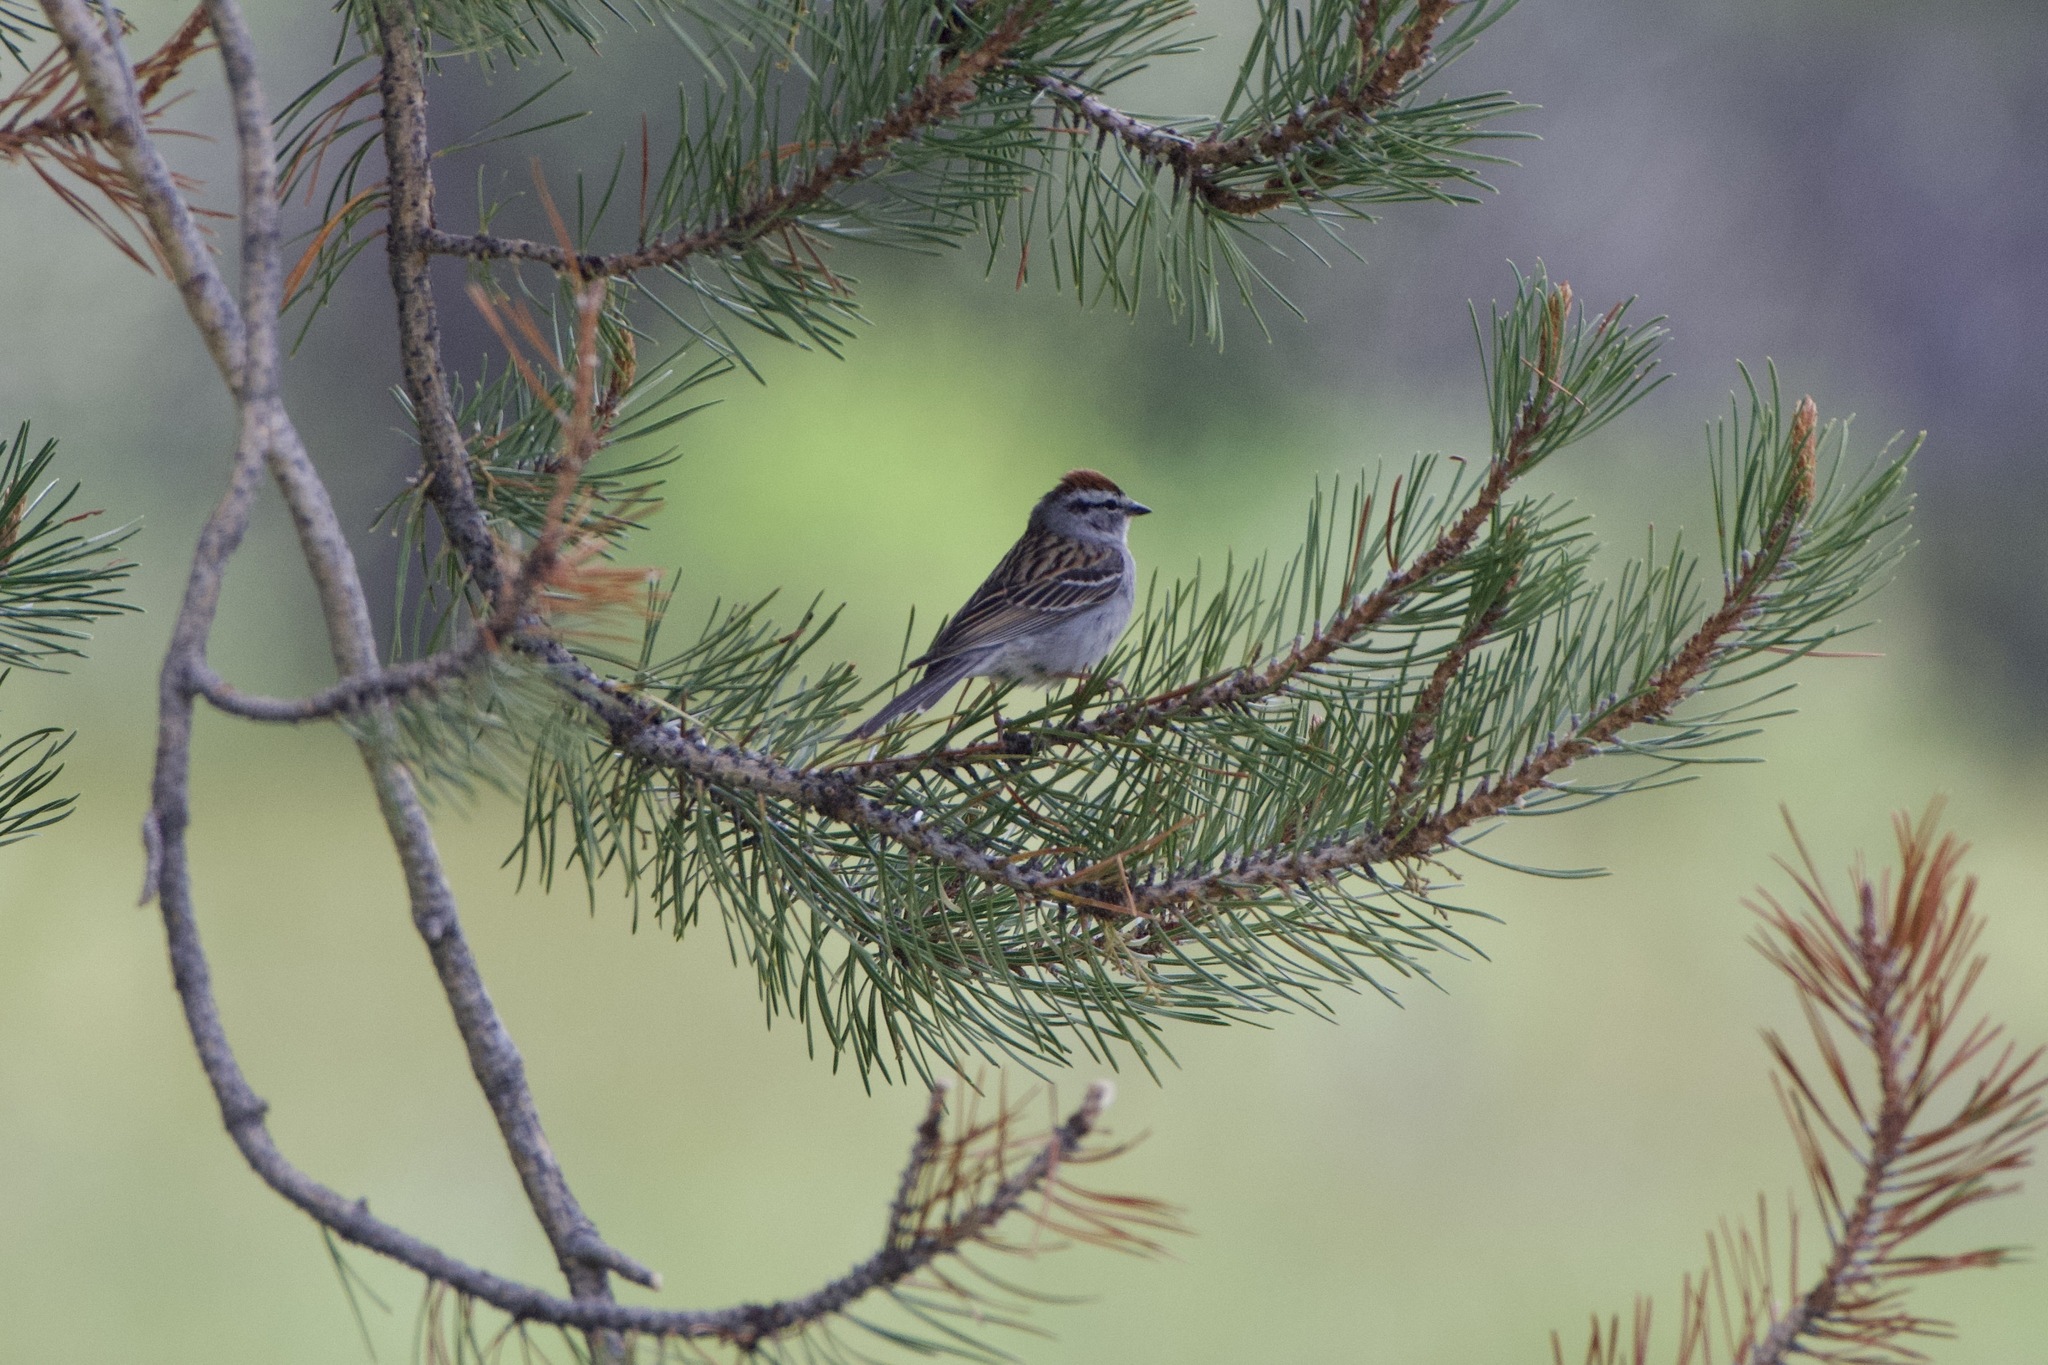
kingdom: Animalia
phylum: Chordata
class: Aves
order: Passeriformes
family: Passerellidae
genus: Spizella
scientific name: Spizella passerina
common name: Chipping sparrow
